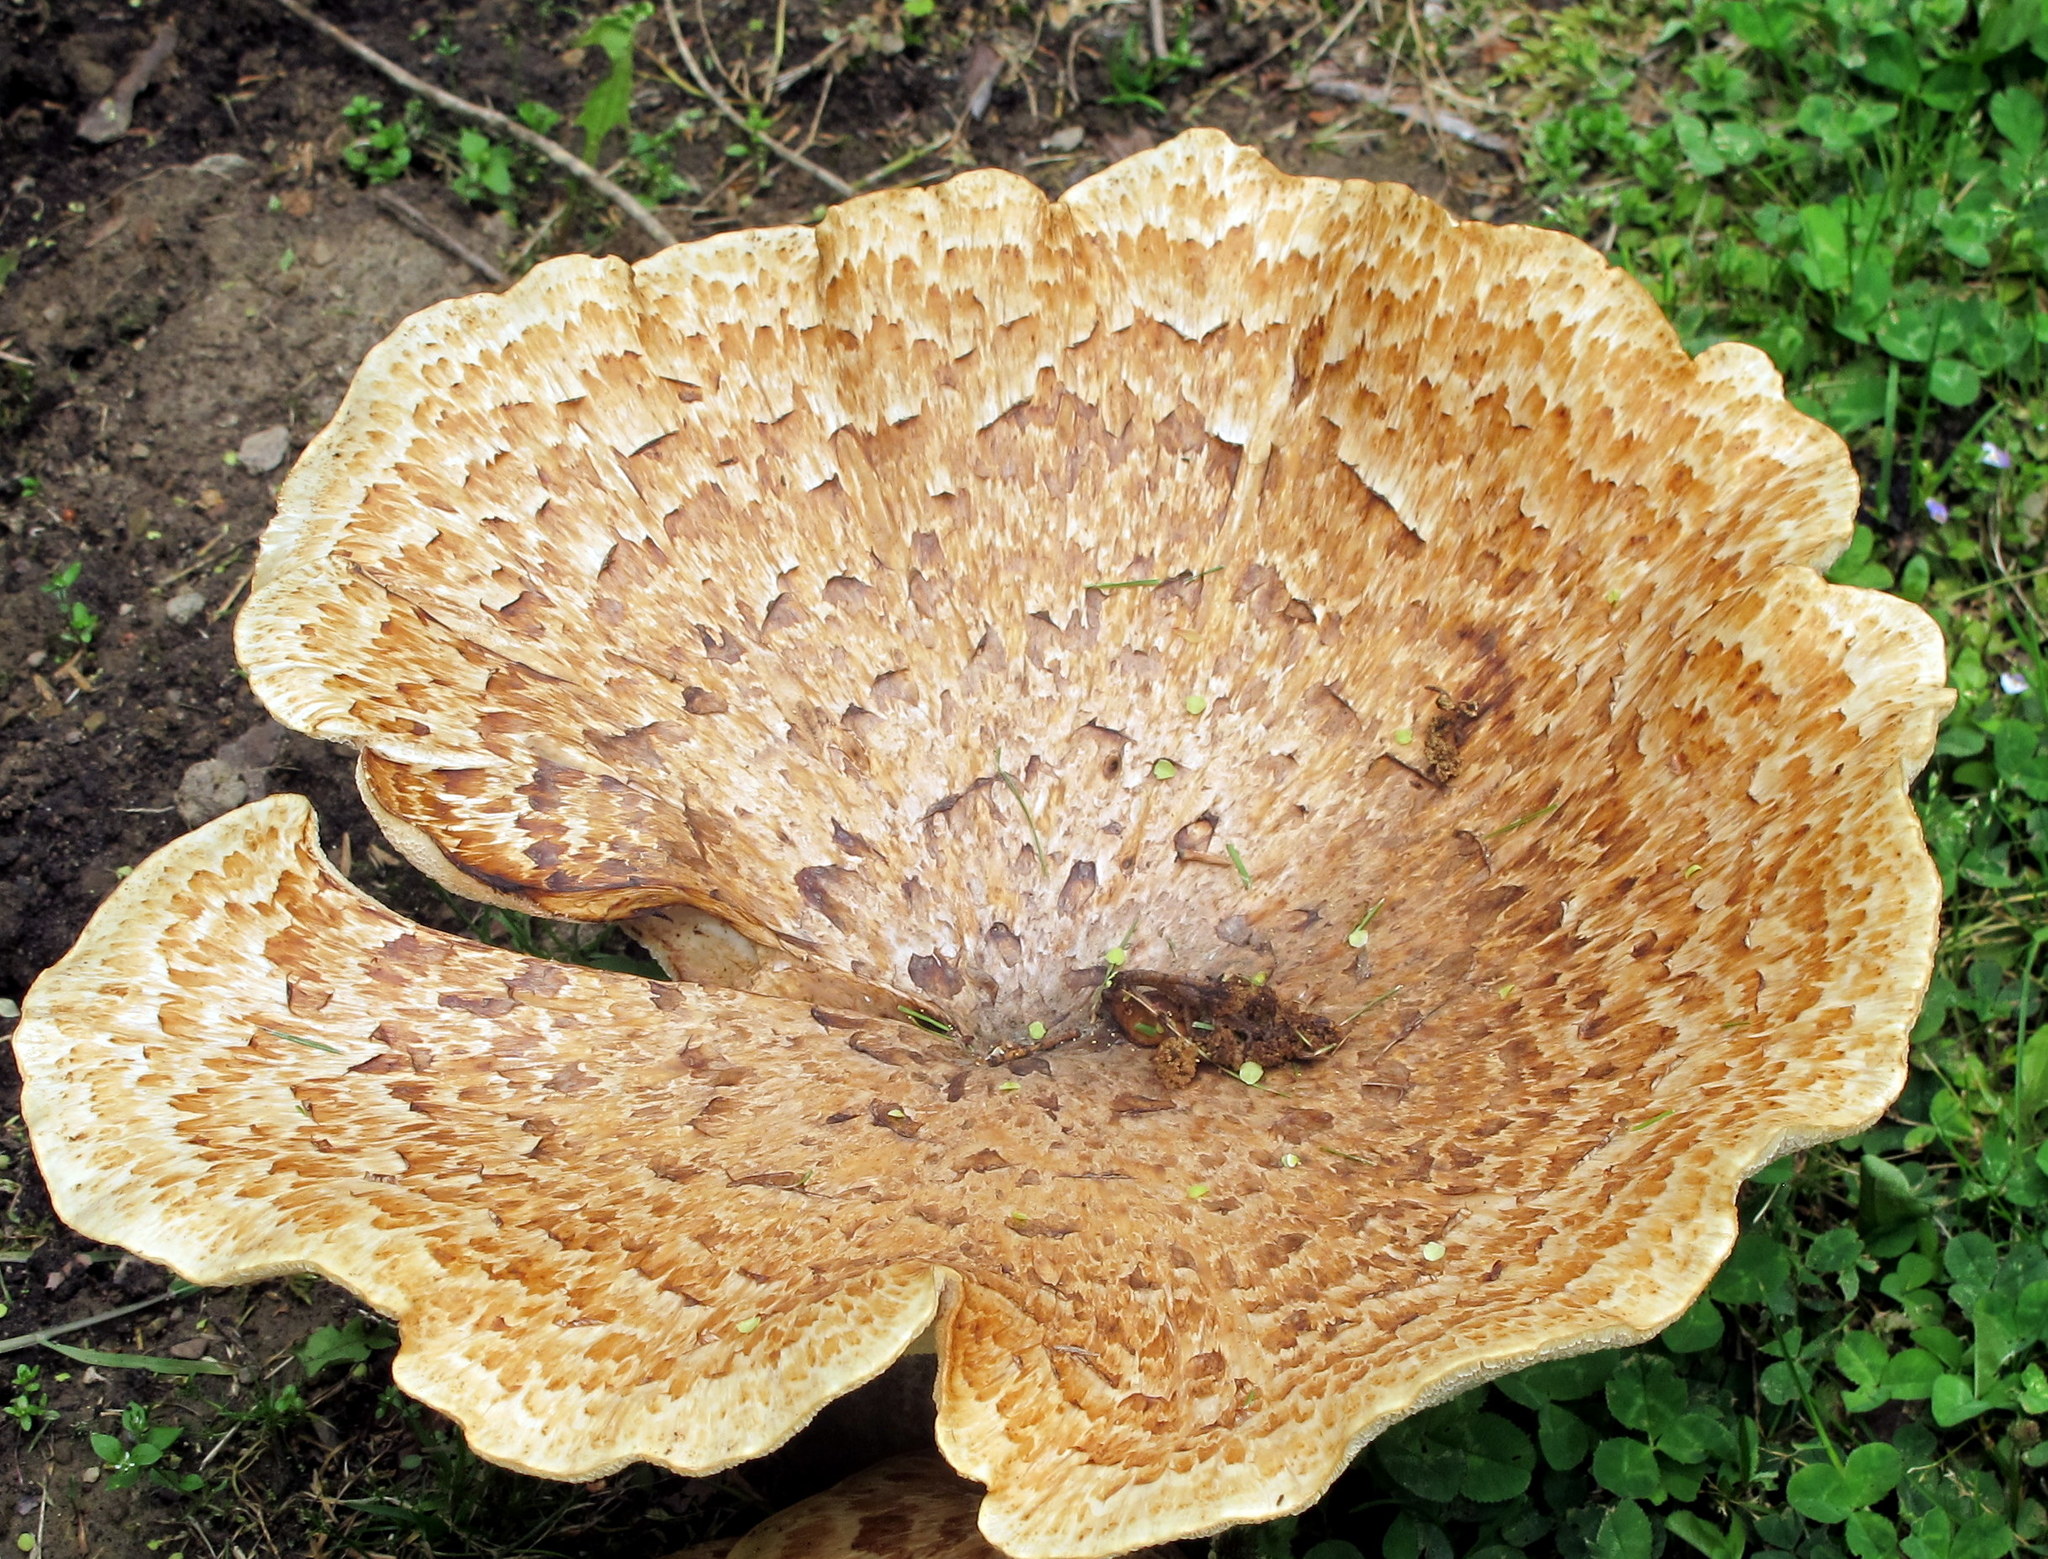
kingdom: Fungi
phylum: Basidiomycota
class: Agaricomycetes
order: Polyporales
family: Polyporaceae
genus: Cerioporus
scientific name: Cerioporus squamosus
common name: Dryad's saddle
